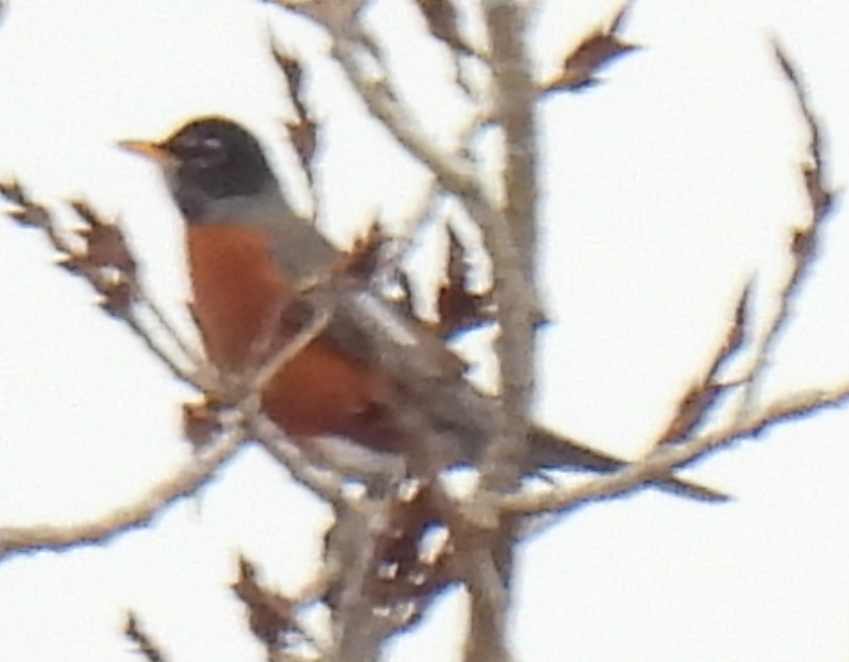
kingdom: Animalia
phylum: Chordata
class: Aves
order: Passeriformes
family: Turdidae
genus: Turdus
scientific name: Turdus migratorius
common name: American robin
